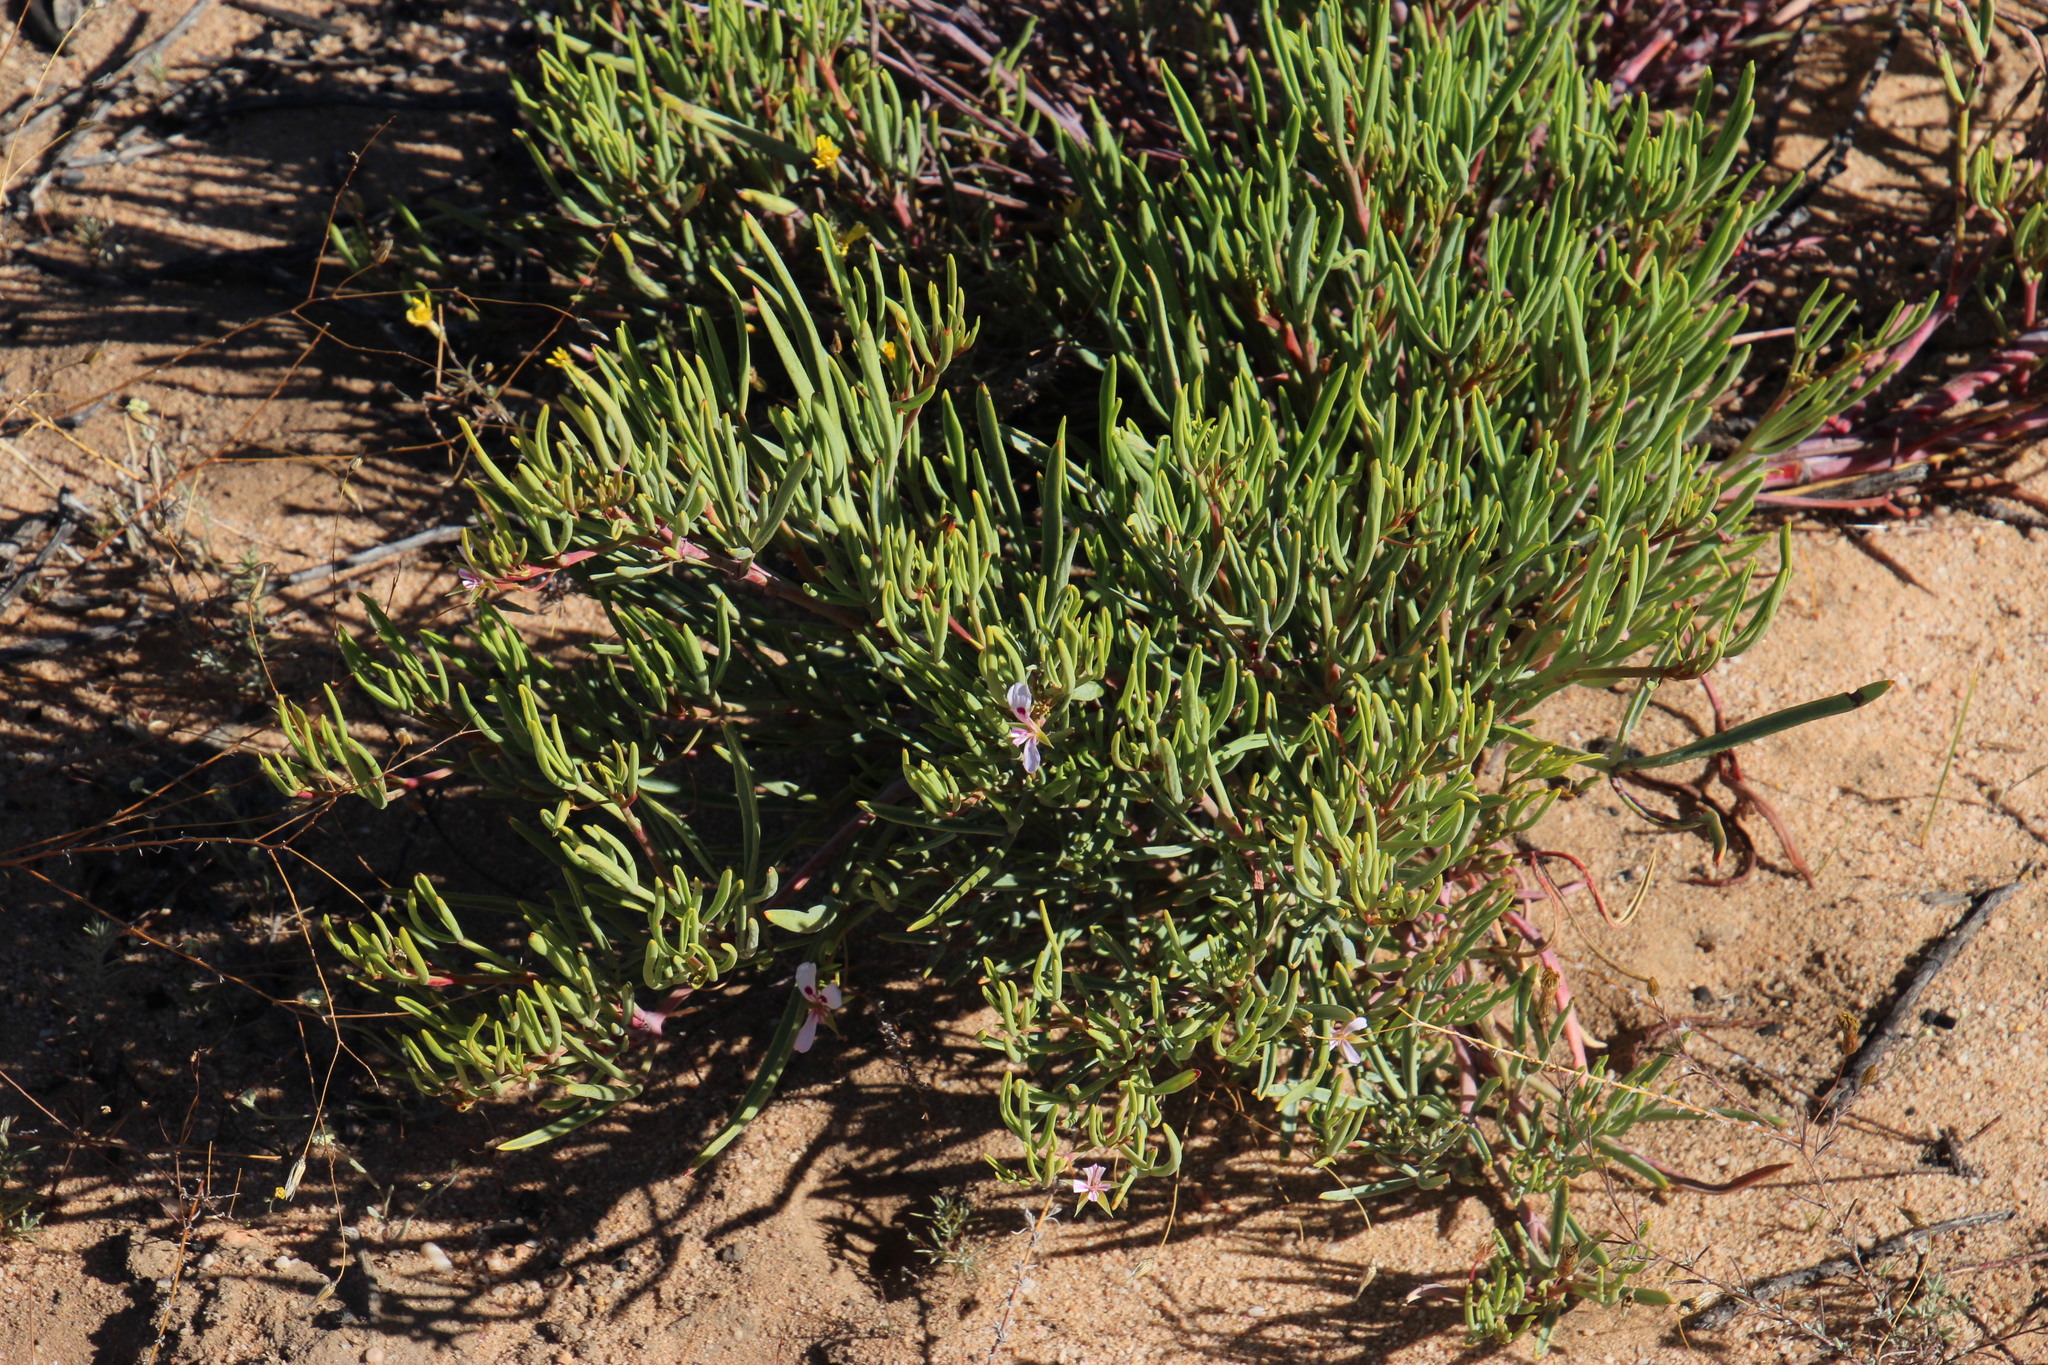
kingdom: Plantae
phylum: Tracheophyta
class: Magnoliopsida
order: Geraniales
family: Geraniaceae
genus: Pelargonium
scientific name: Pelargonium laevigatum
